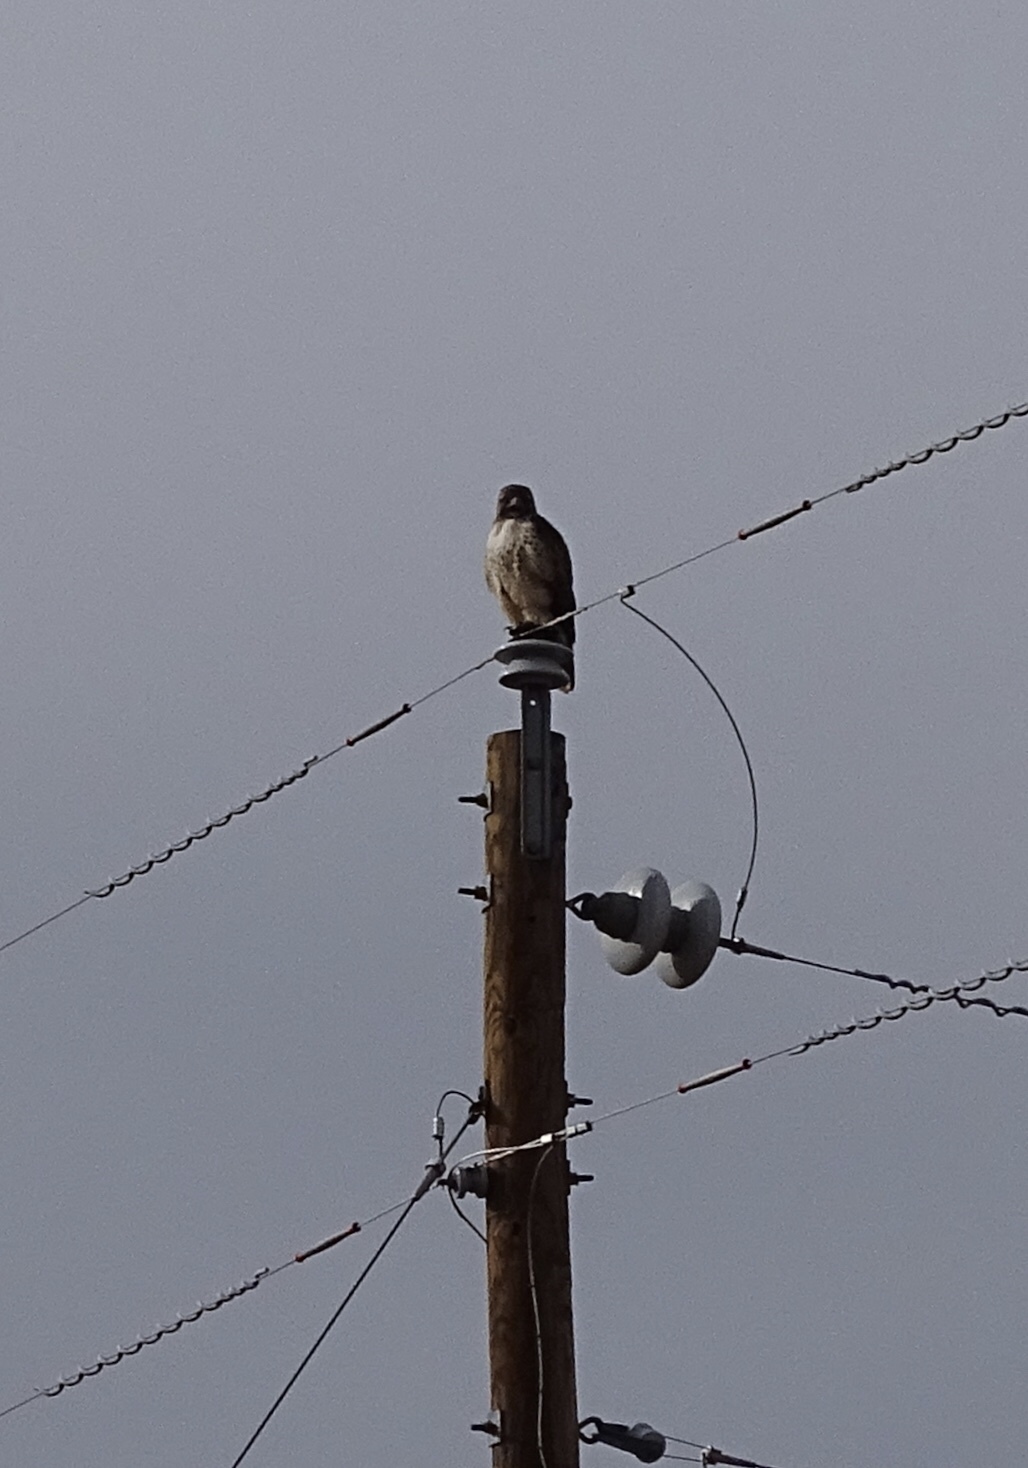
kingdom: Animalia
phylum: Chordata
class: Aves
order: Accipitriformes
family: Accipitridae
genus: Buteo
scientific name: Buteo jamaicensis
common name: Red-tailed hawk
